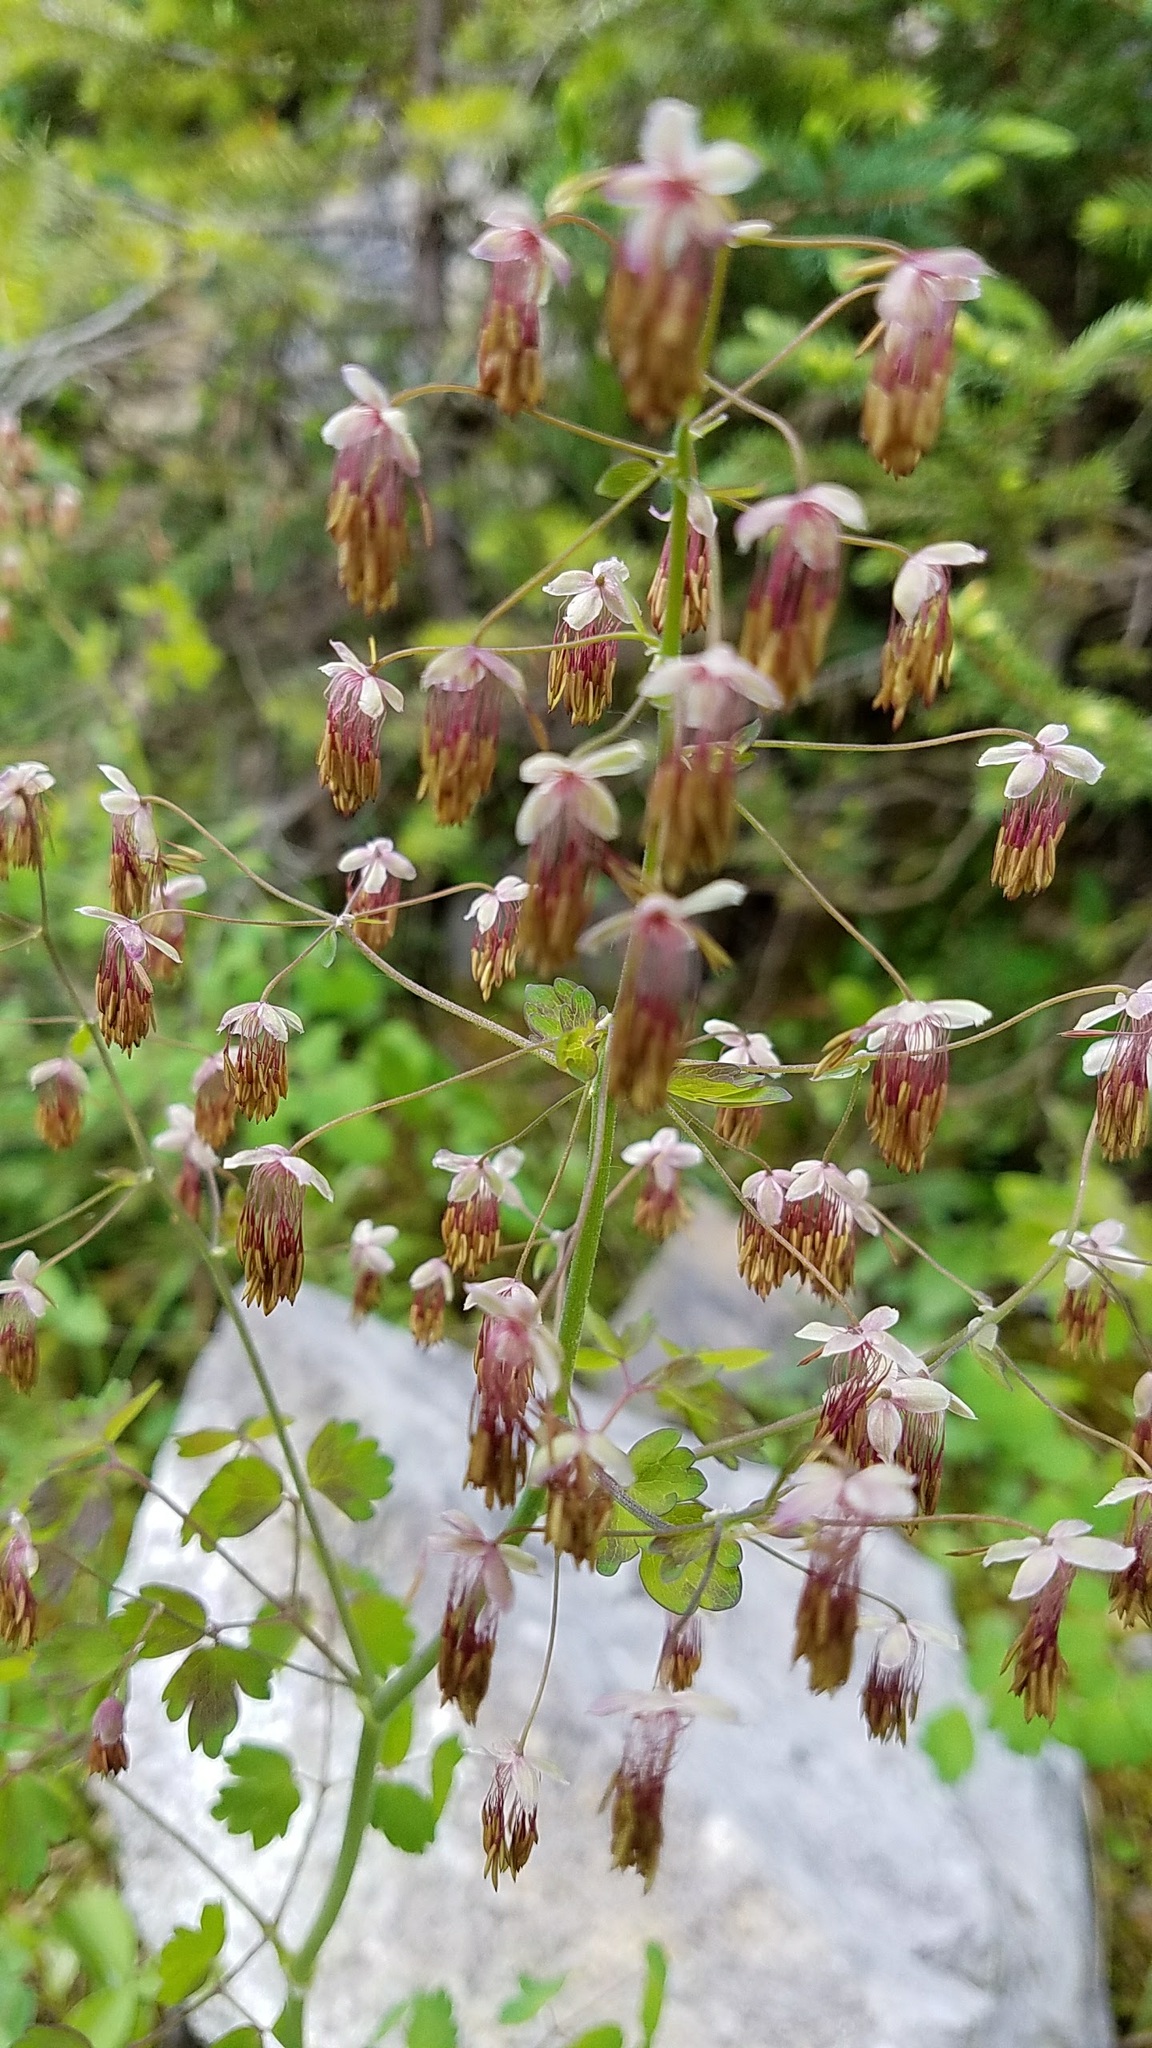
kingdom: Plantae
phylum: Tracheophyta
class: Magnoliopsida
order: Ranunculales
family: Ranunculaceae
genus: Thalictrum
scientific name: Thalictrum occidentale
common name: Western meadow-rue
